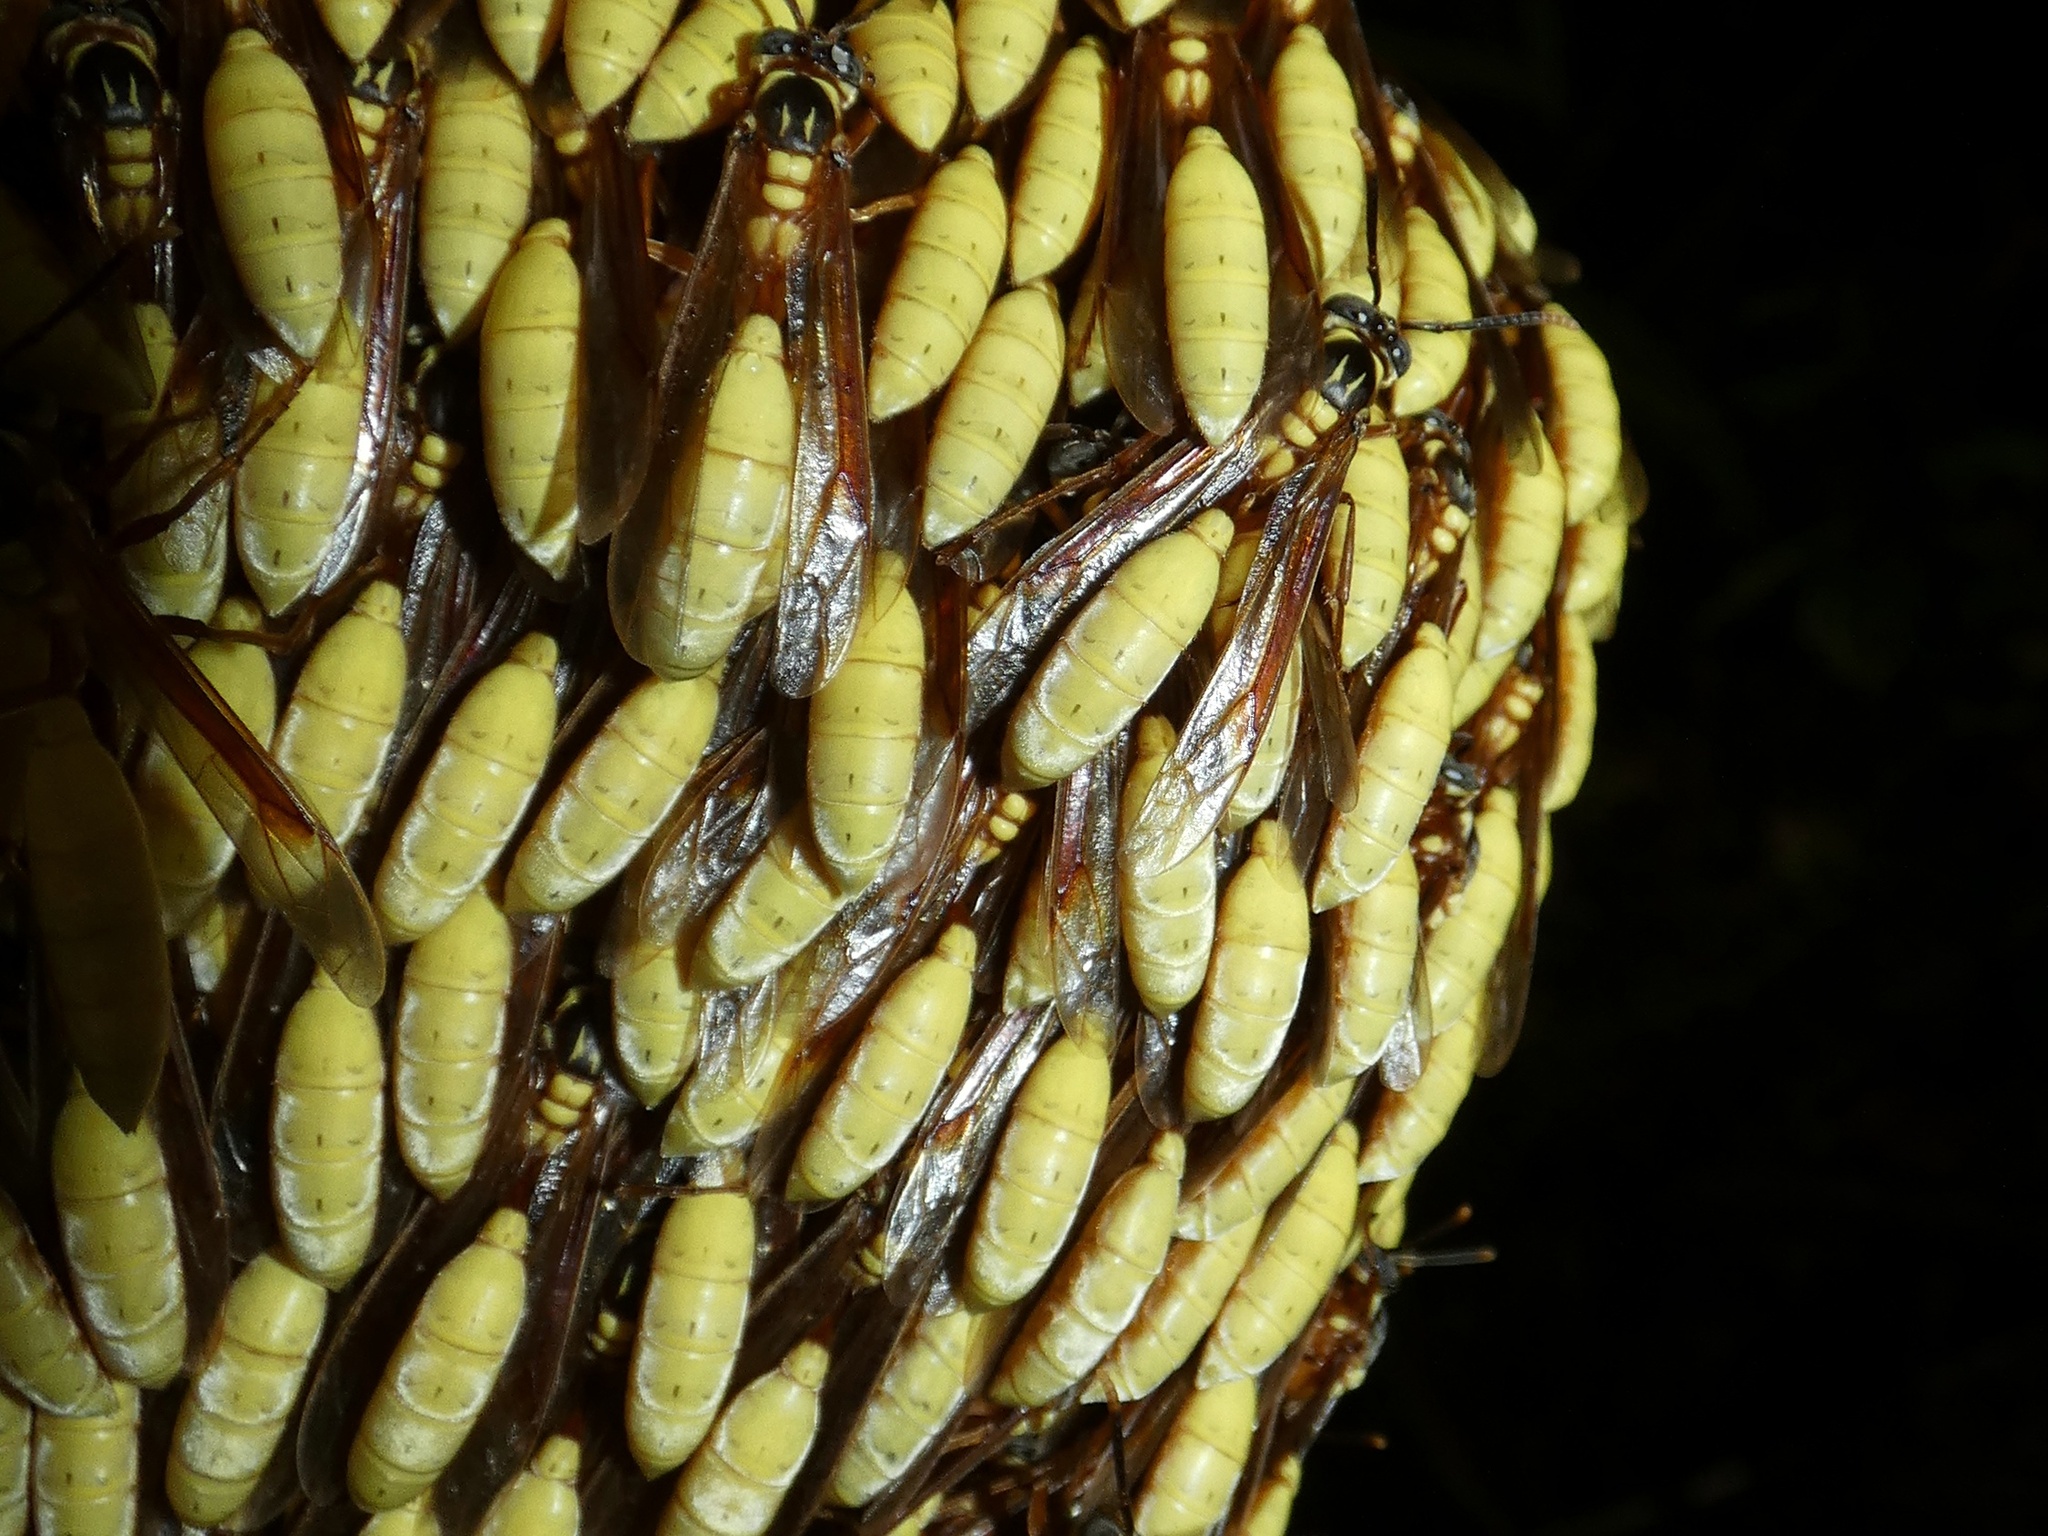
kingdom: Animalia
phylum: Arthropoda
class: Insecta
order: Hymenoptera
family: Vespidae
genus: Apoica
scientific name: Apoica pallens
